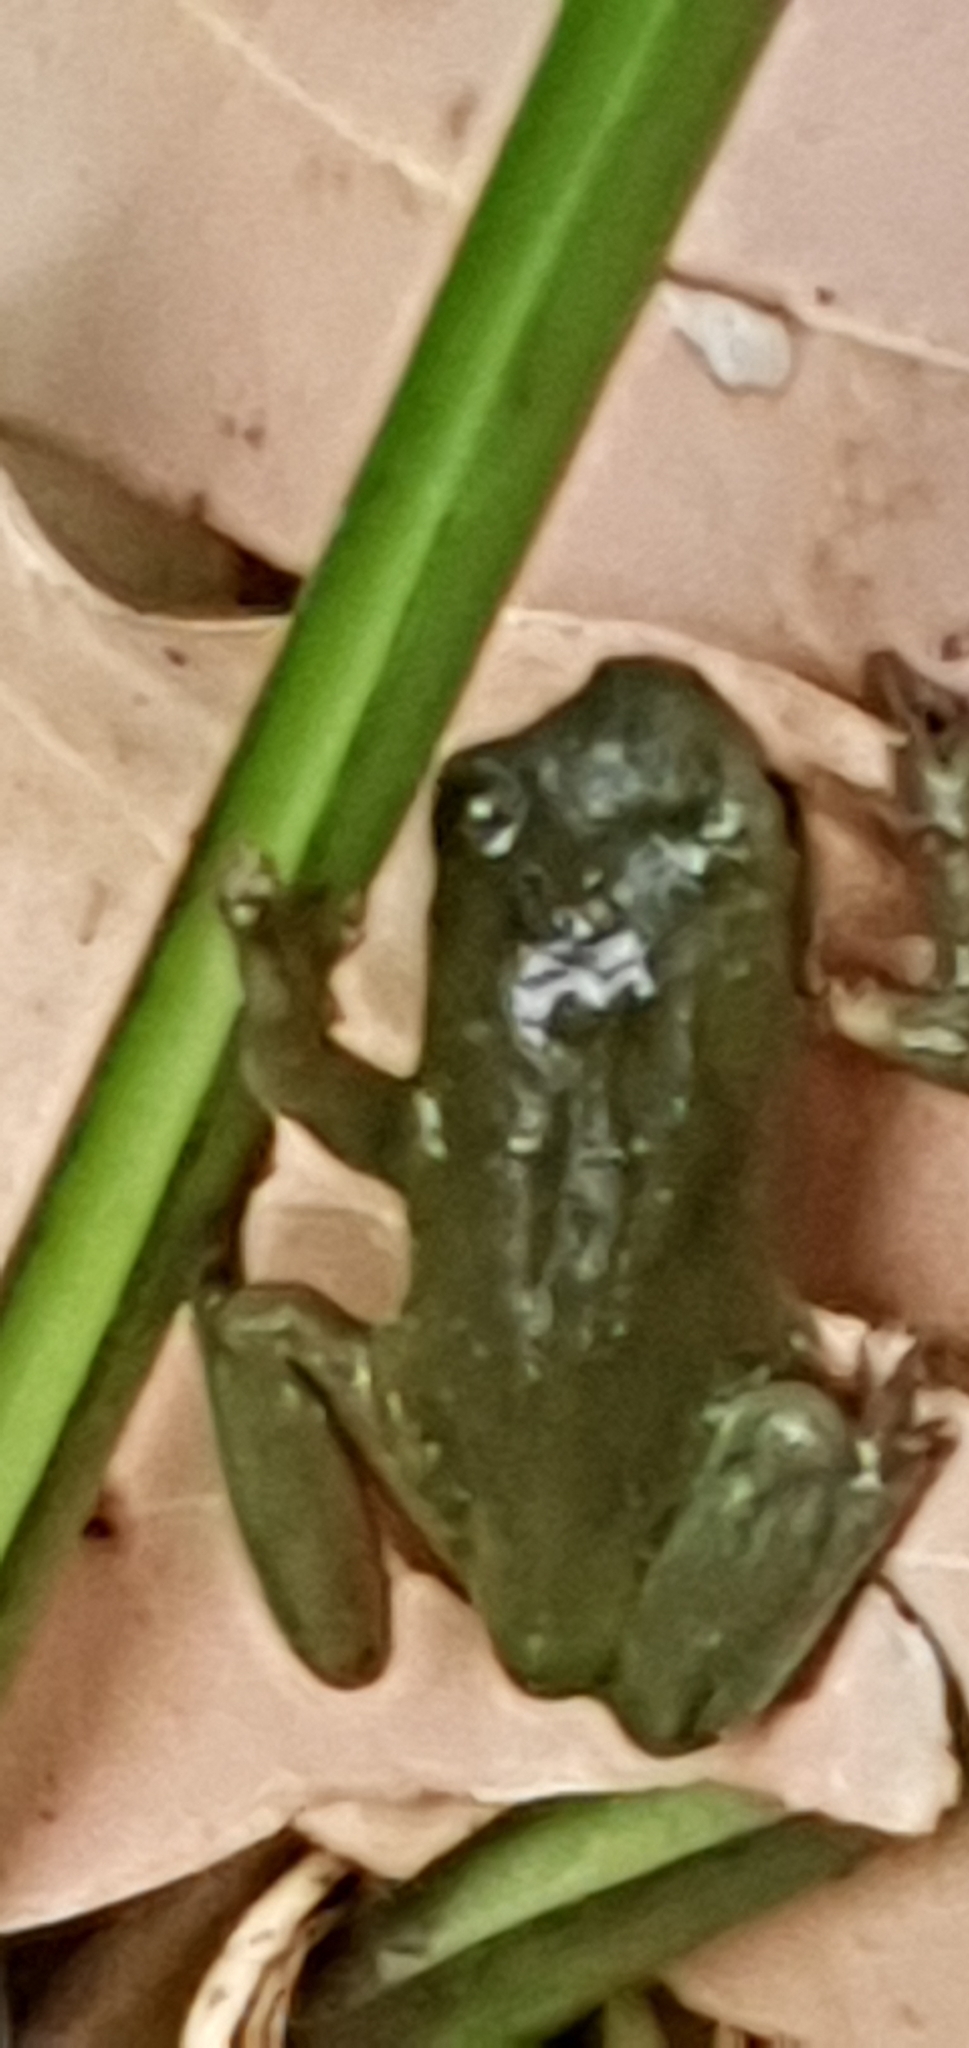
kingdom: Animalia
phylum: Chordata
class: Amphibia
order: Anura
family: Pelodryadidae
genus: Ranoidea
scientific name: Ranoidea caerulea
